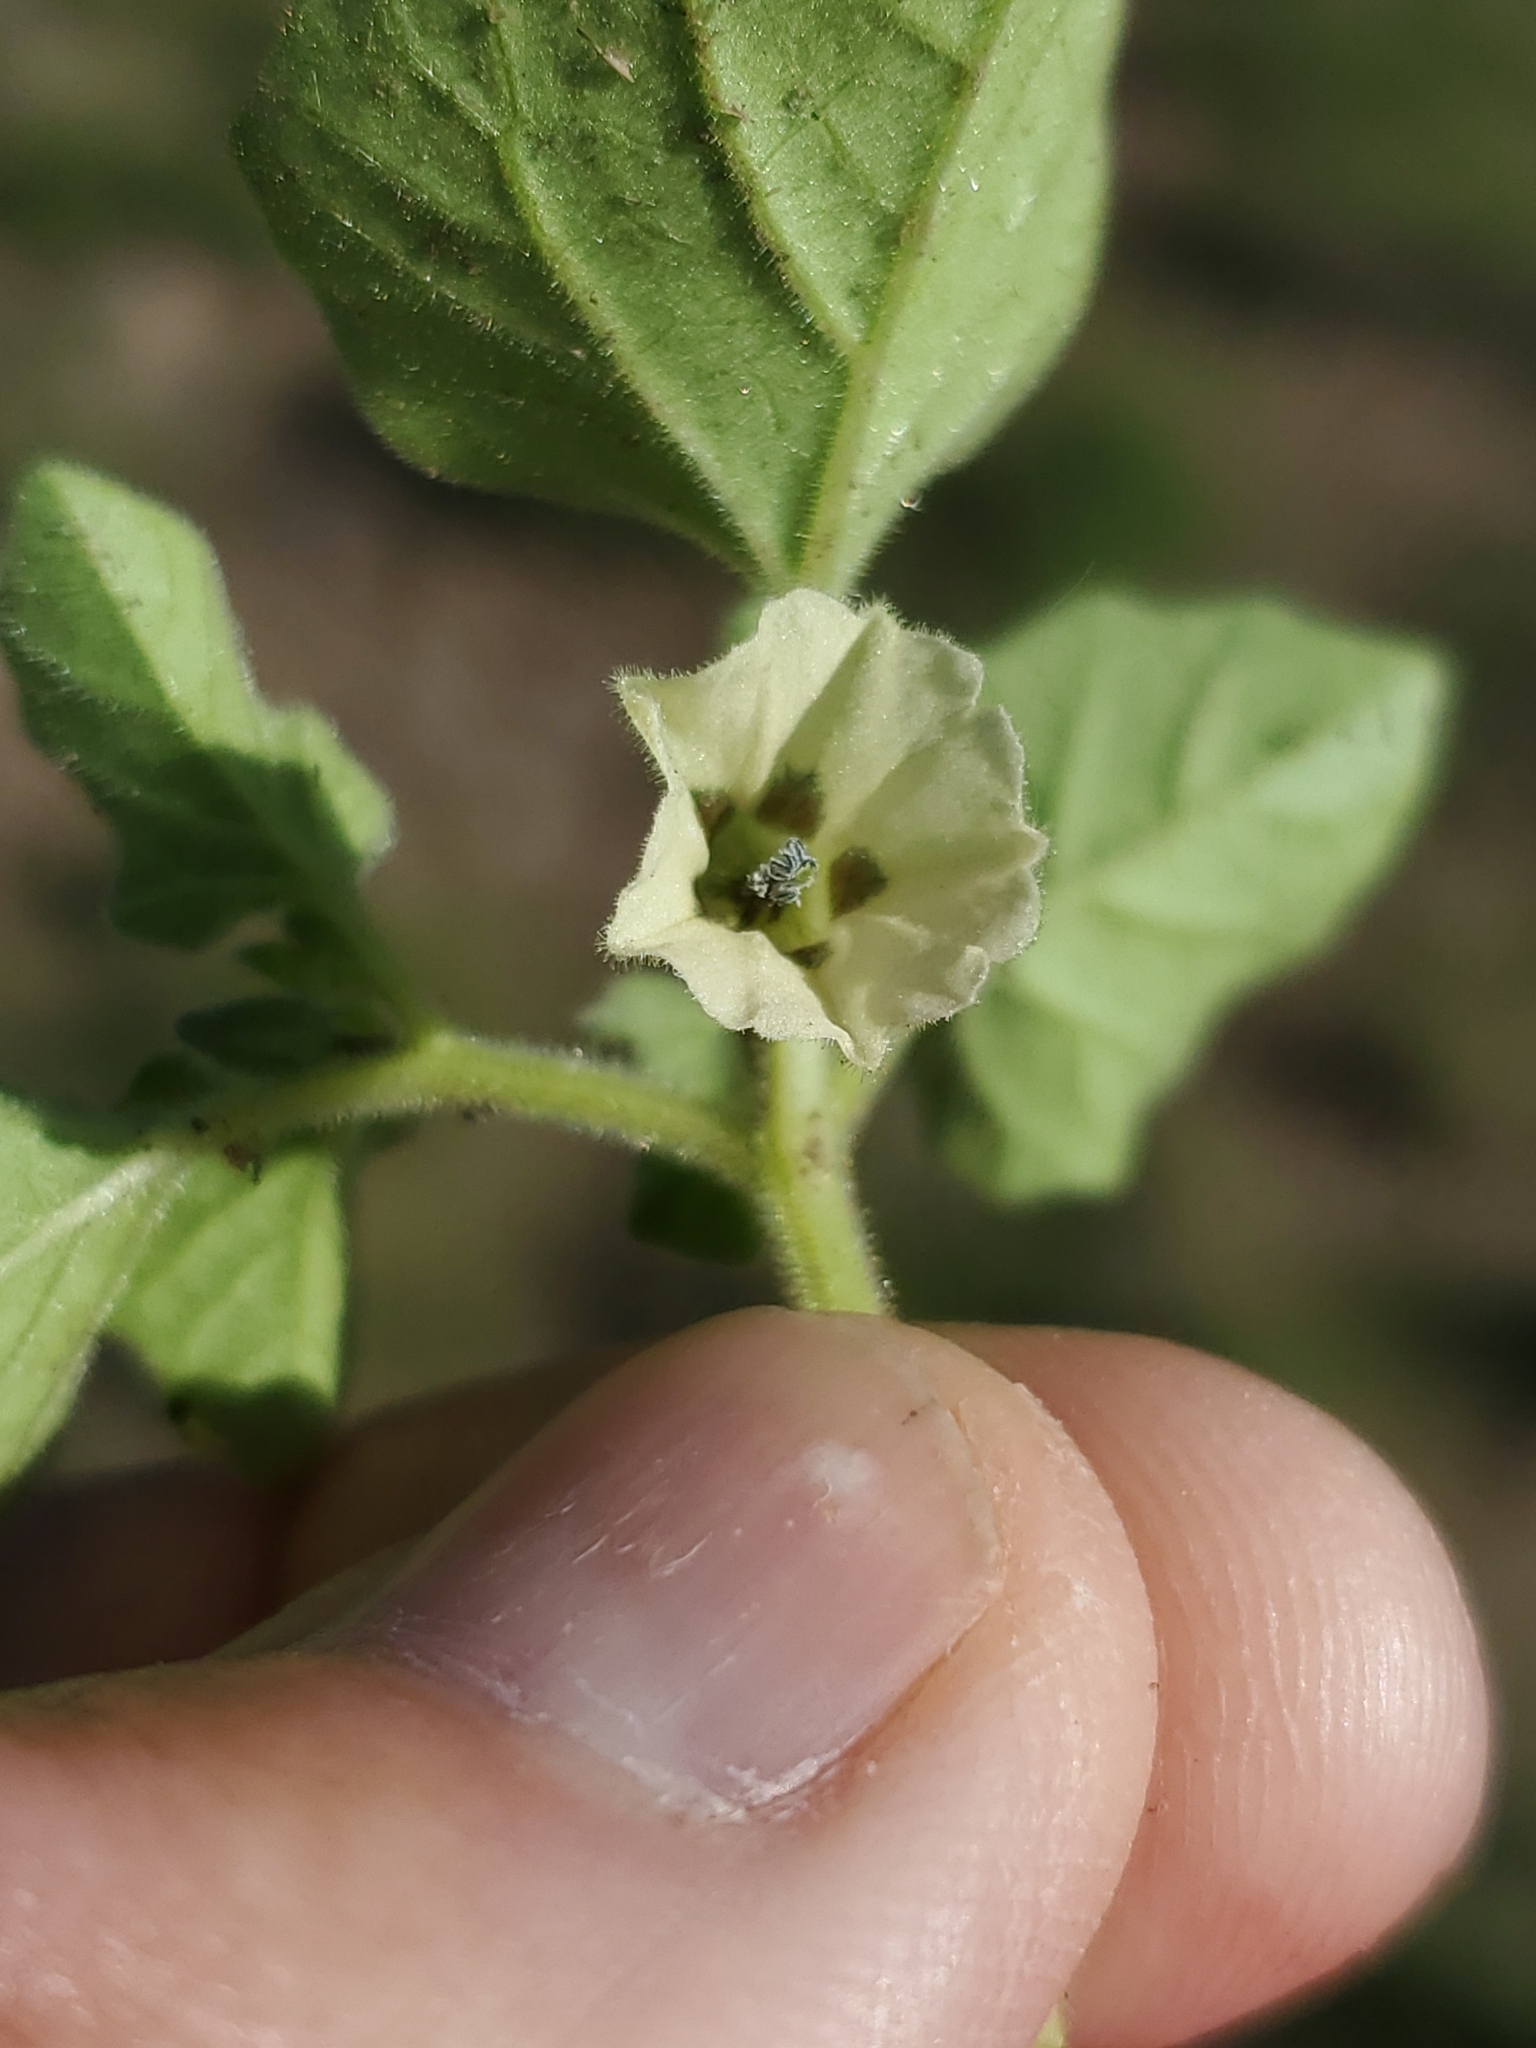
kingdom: Plantae
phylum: Tracheophyta
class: Magnoliopsida
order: Solanales
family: Solanaceae
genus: Physalis
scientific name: Physalis neomexicana
